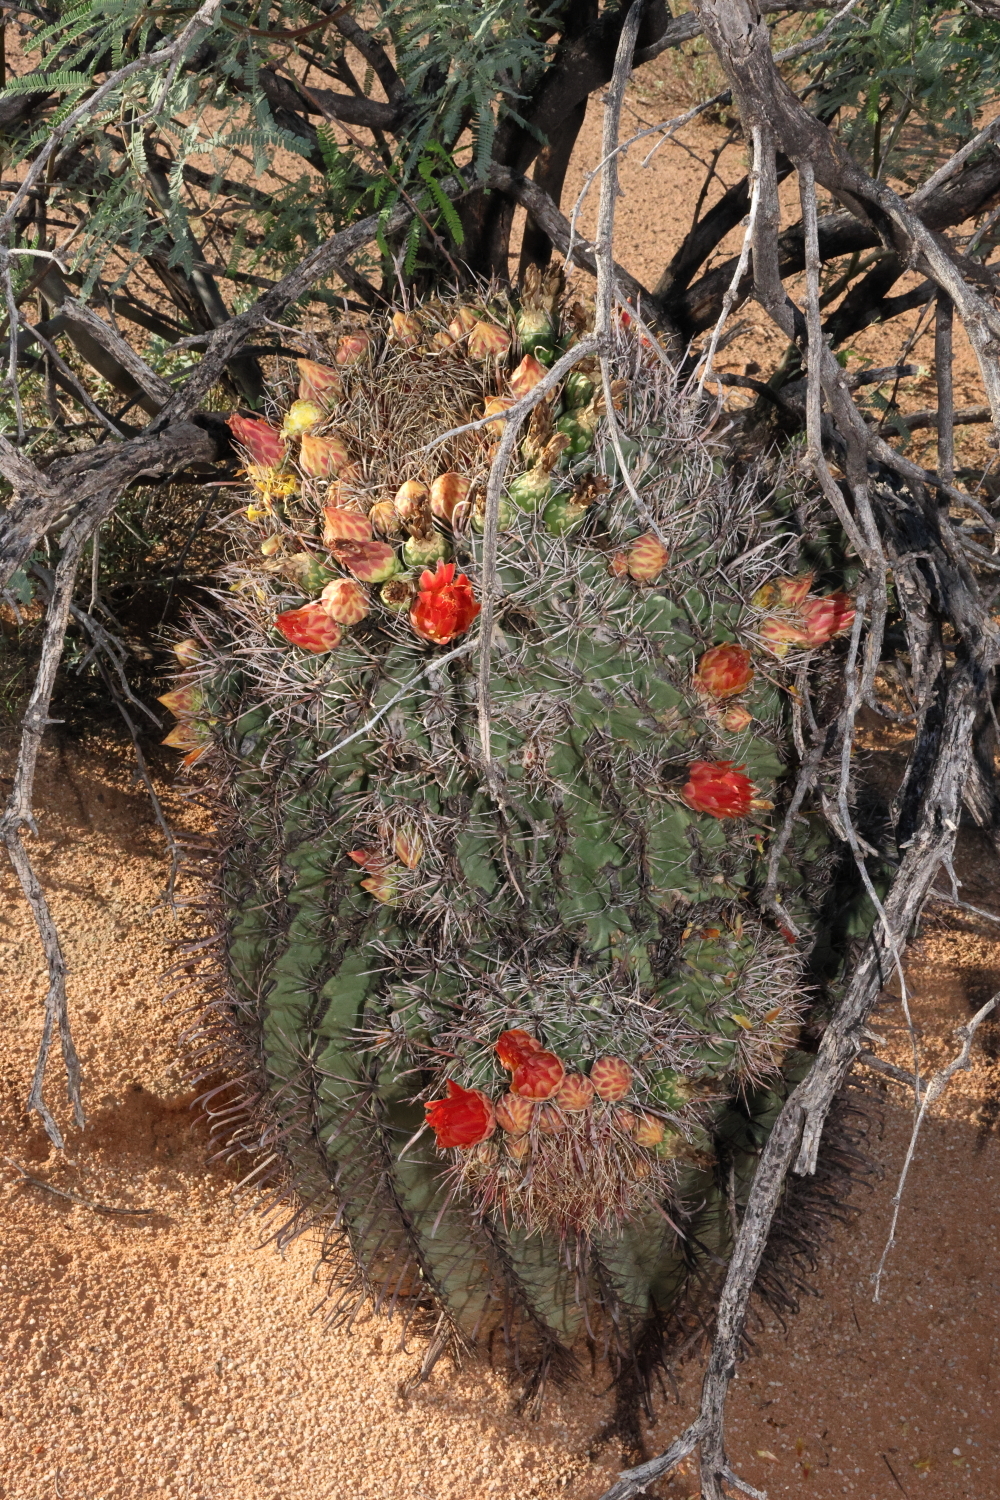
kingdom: Plantae
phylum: Tracheophyta
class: Magnoliopsida
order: Caryophyllales
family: Cactaceae
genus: Ferocactus
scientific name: Ferocactus wislizeni
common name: Candy barrel cactus
